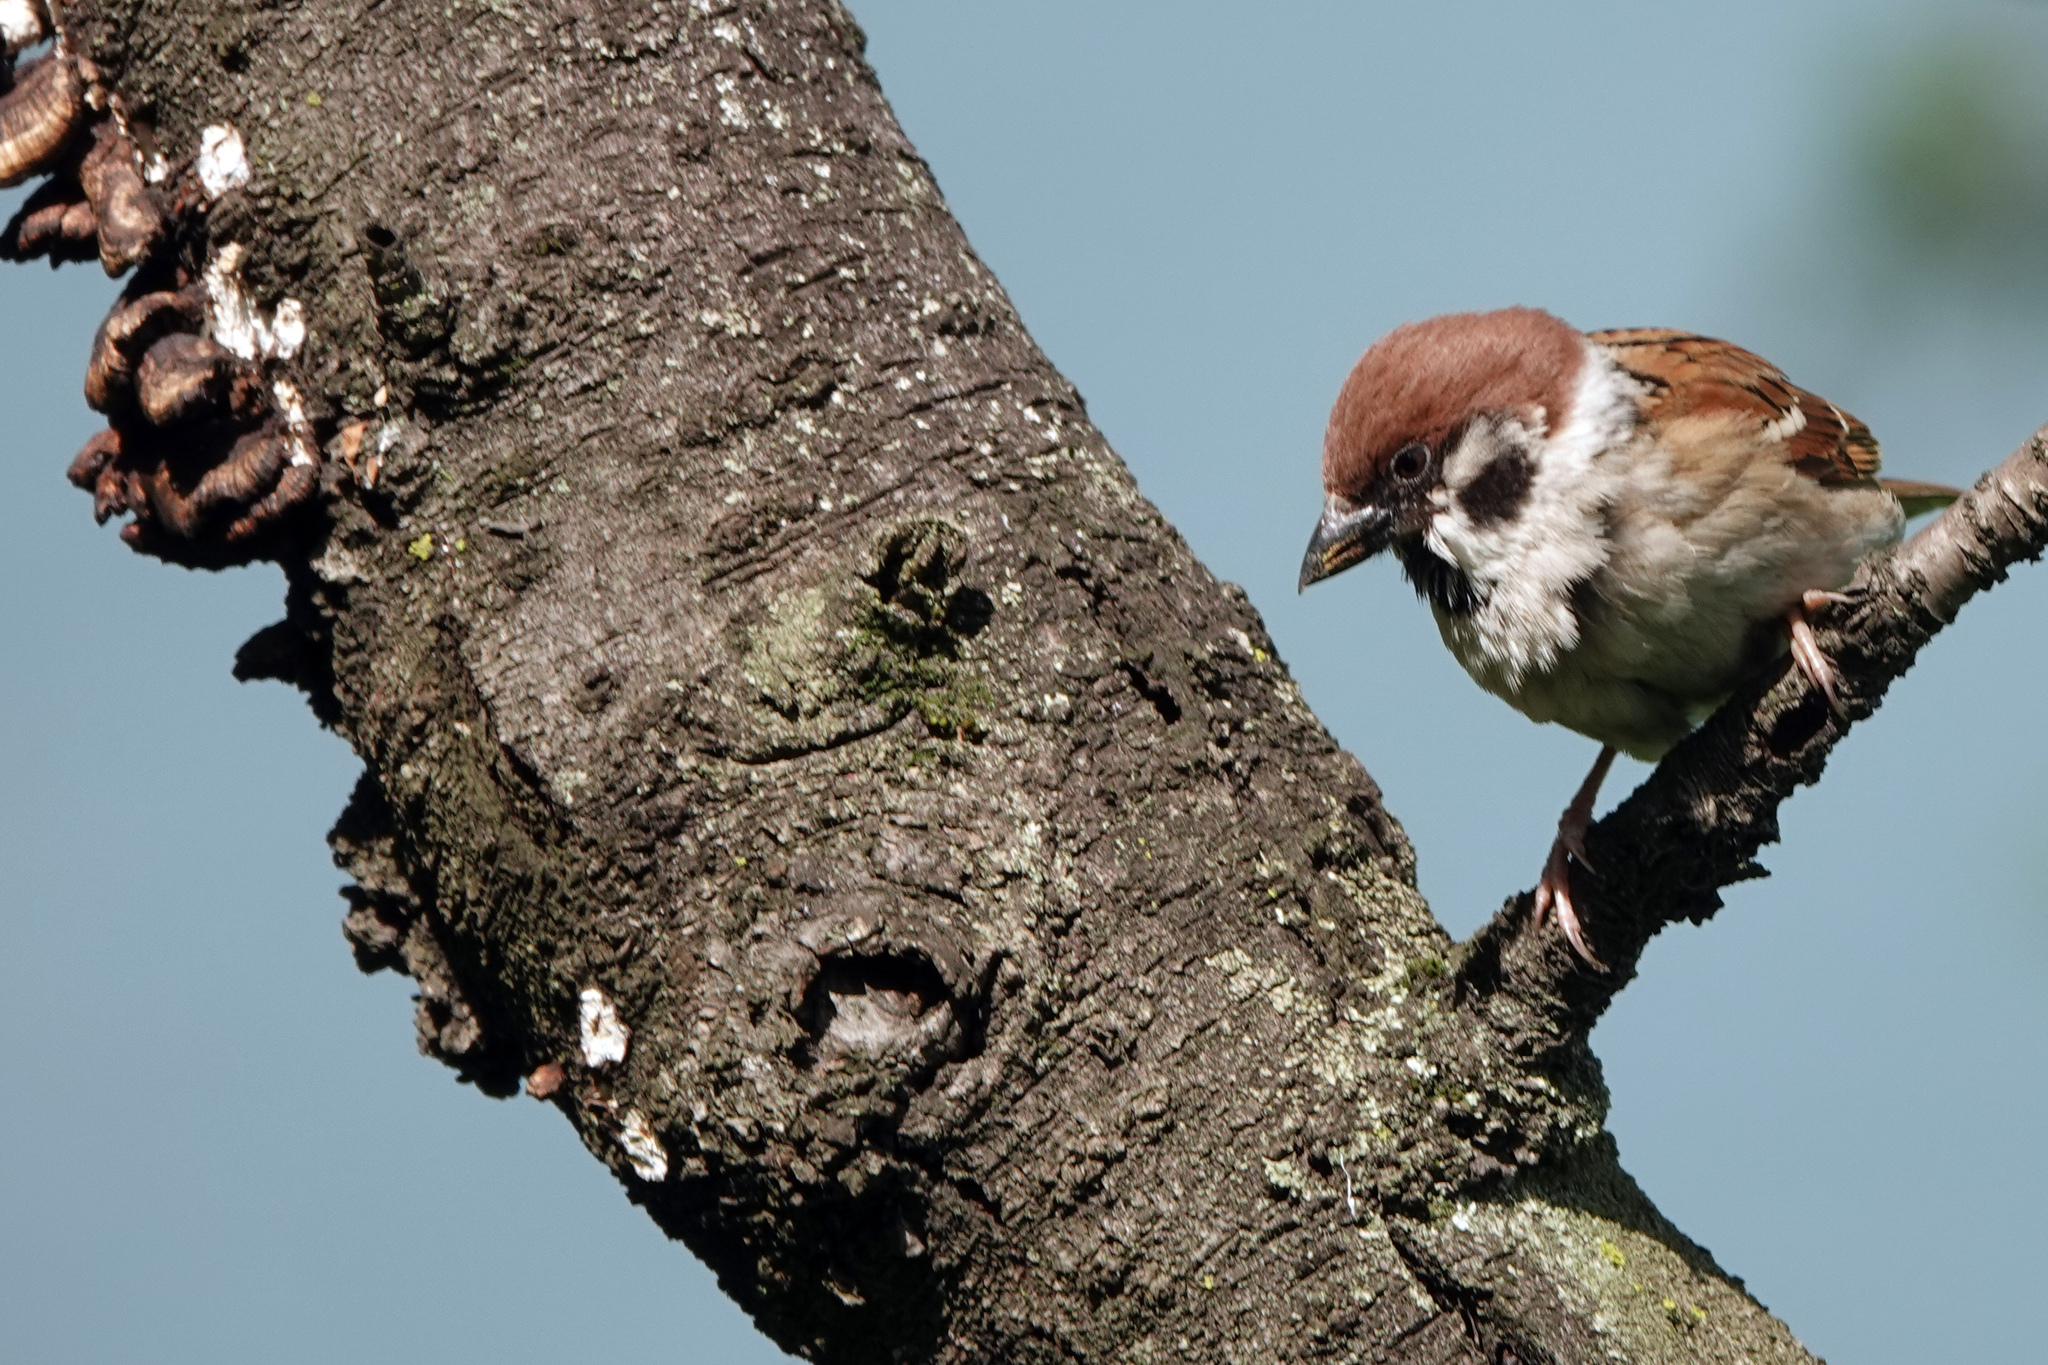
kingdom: Animalia
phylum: Chordata
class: Aves
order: Passeriformes
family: Passeridae
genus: Passer
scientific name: Passer montanus
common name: Eurasian tree sparrow
